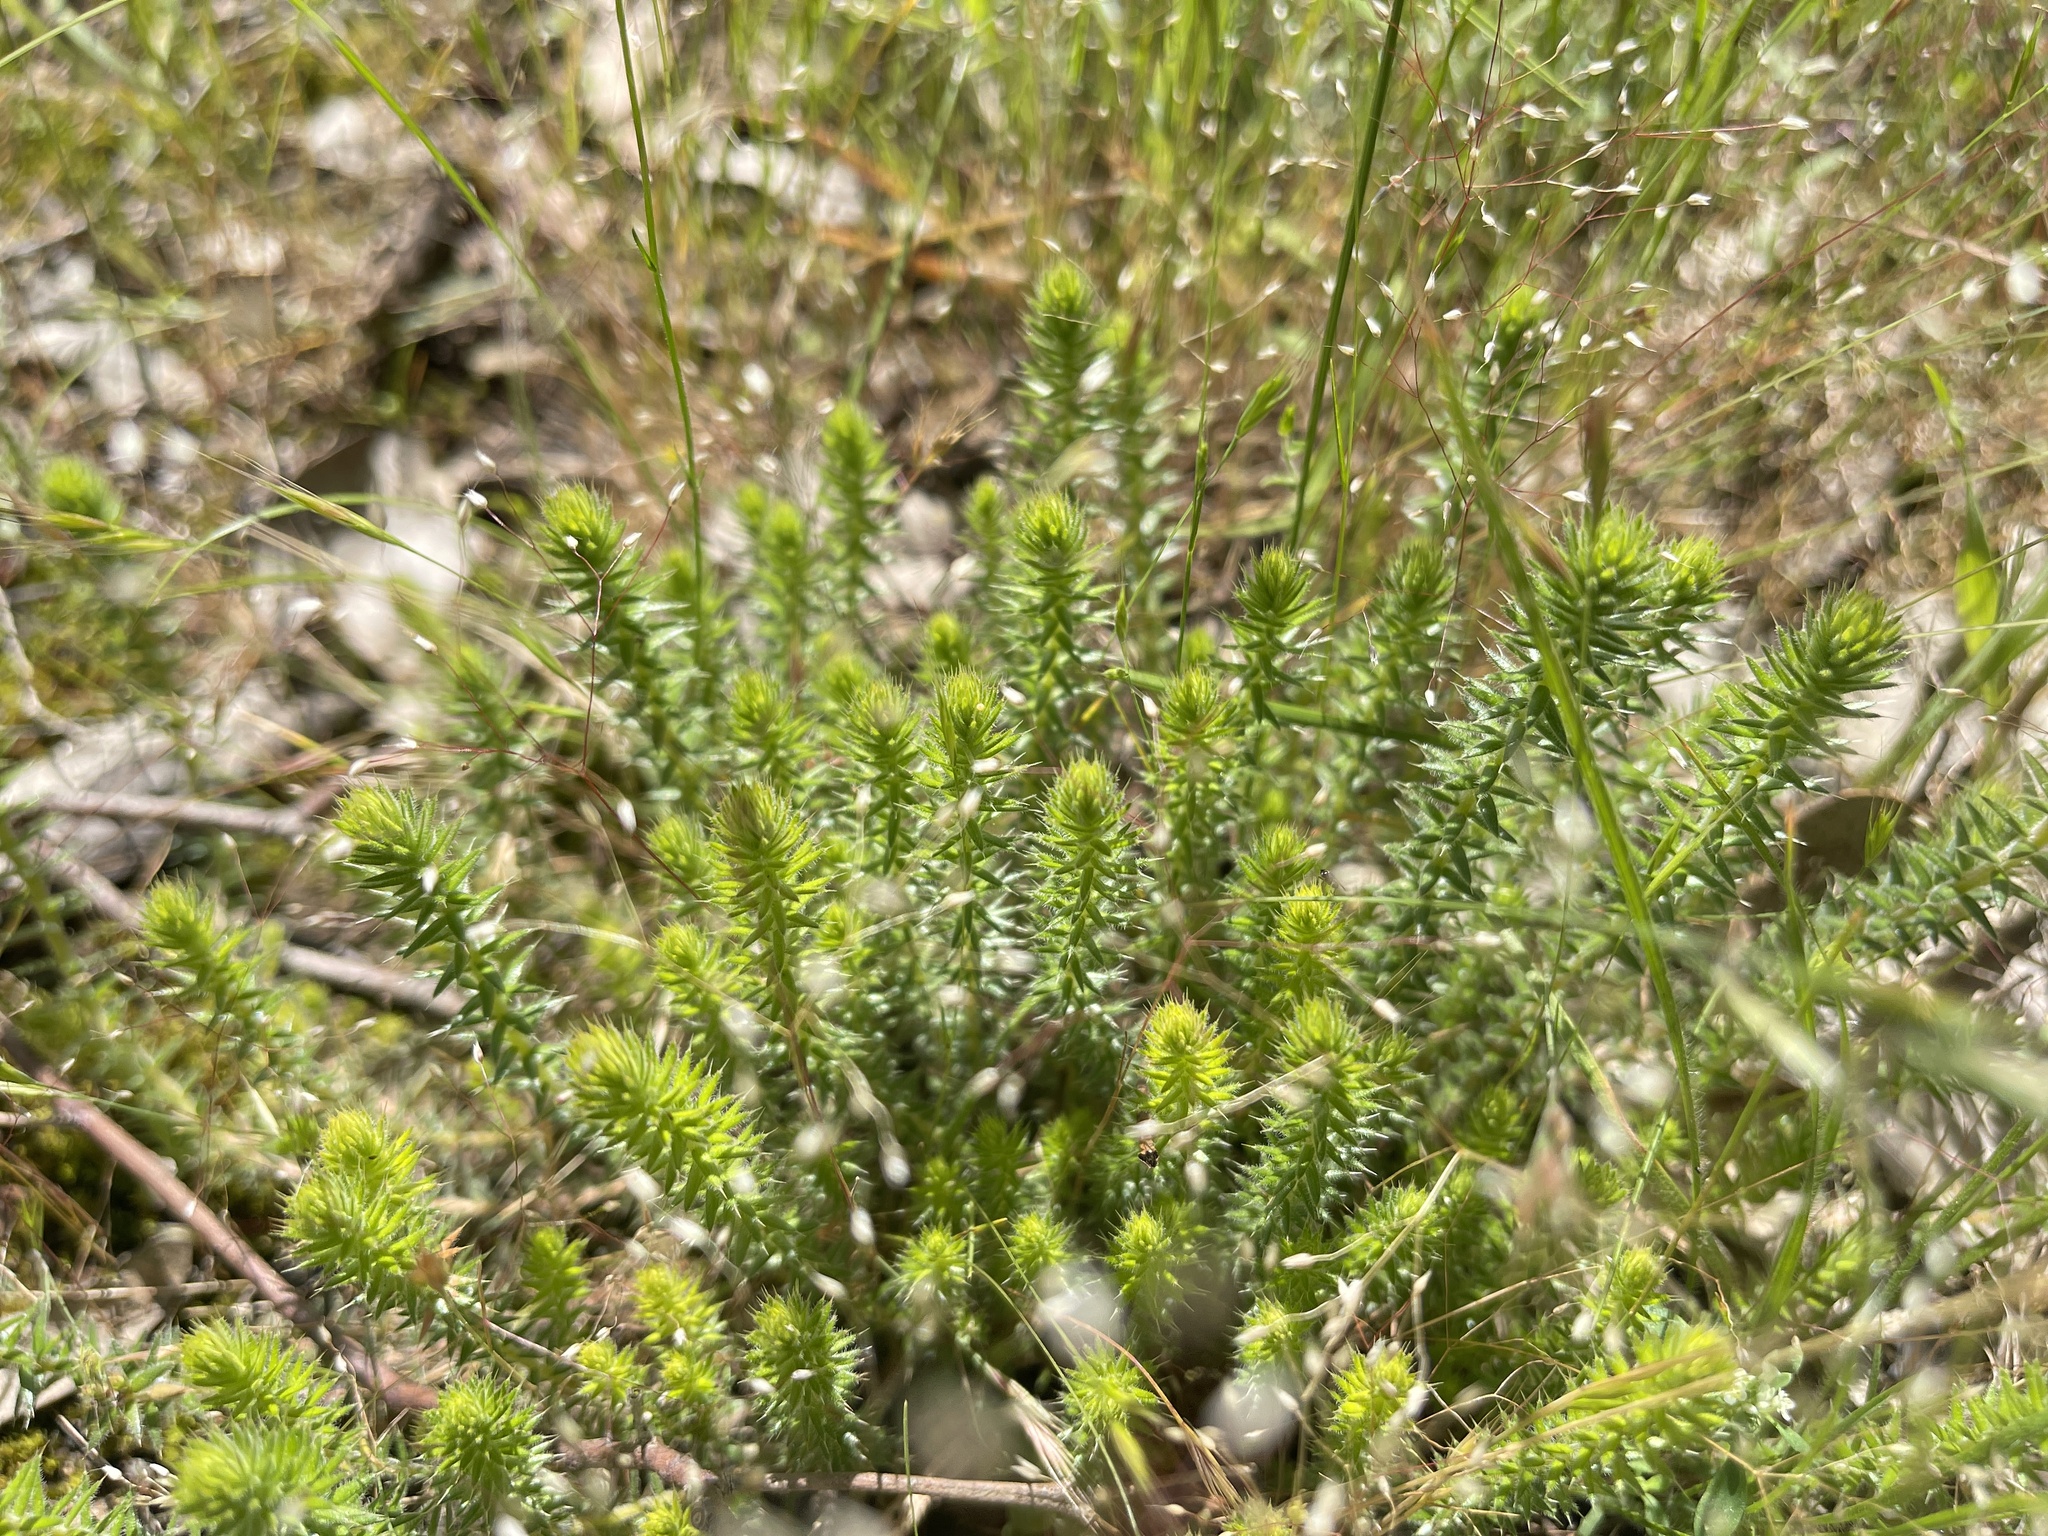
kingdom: Plantae
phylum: Tracheophyta
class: Magnoliopsida
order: Ericales
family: Ericaceae
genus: Acrotriche
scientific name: Acrotriche serrulata
